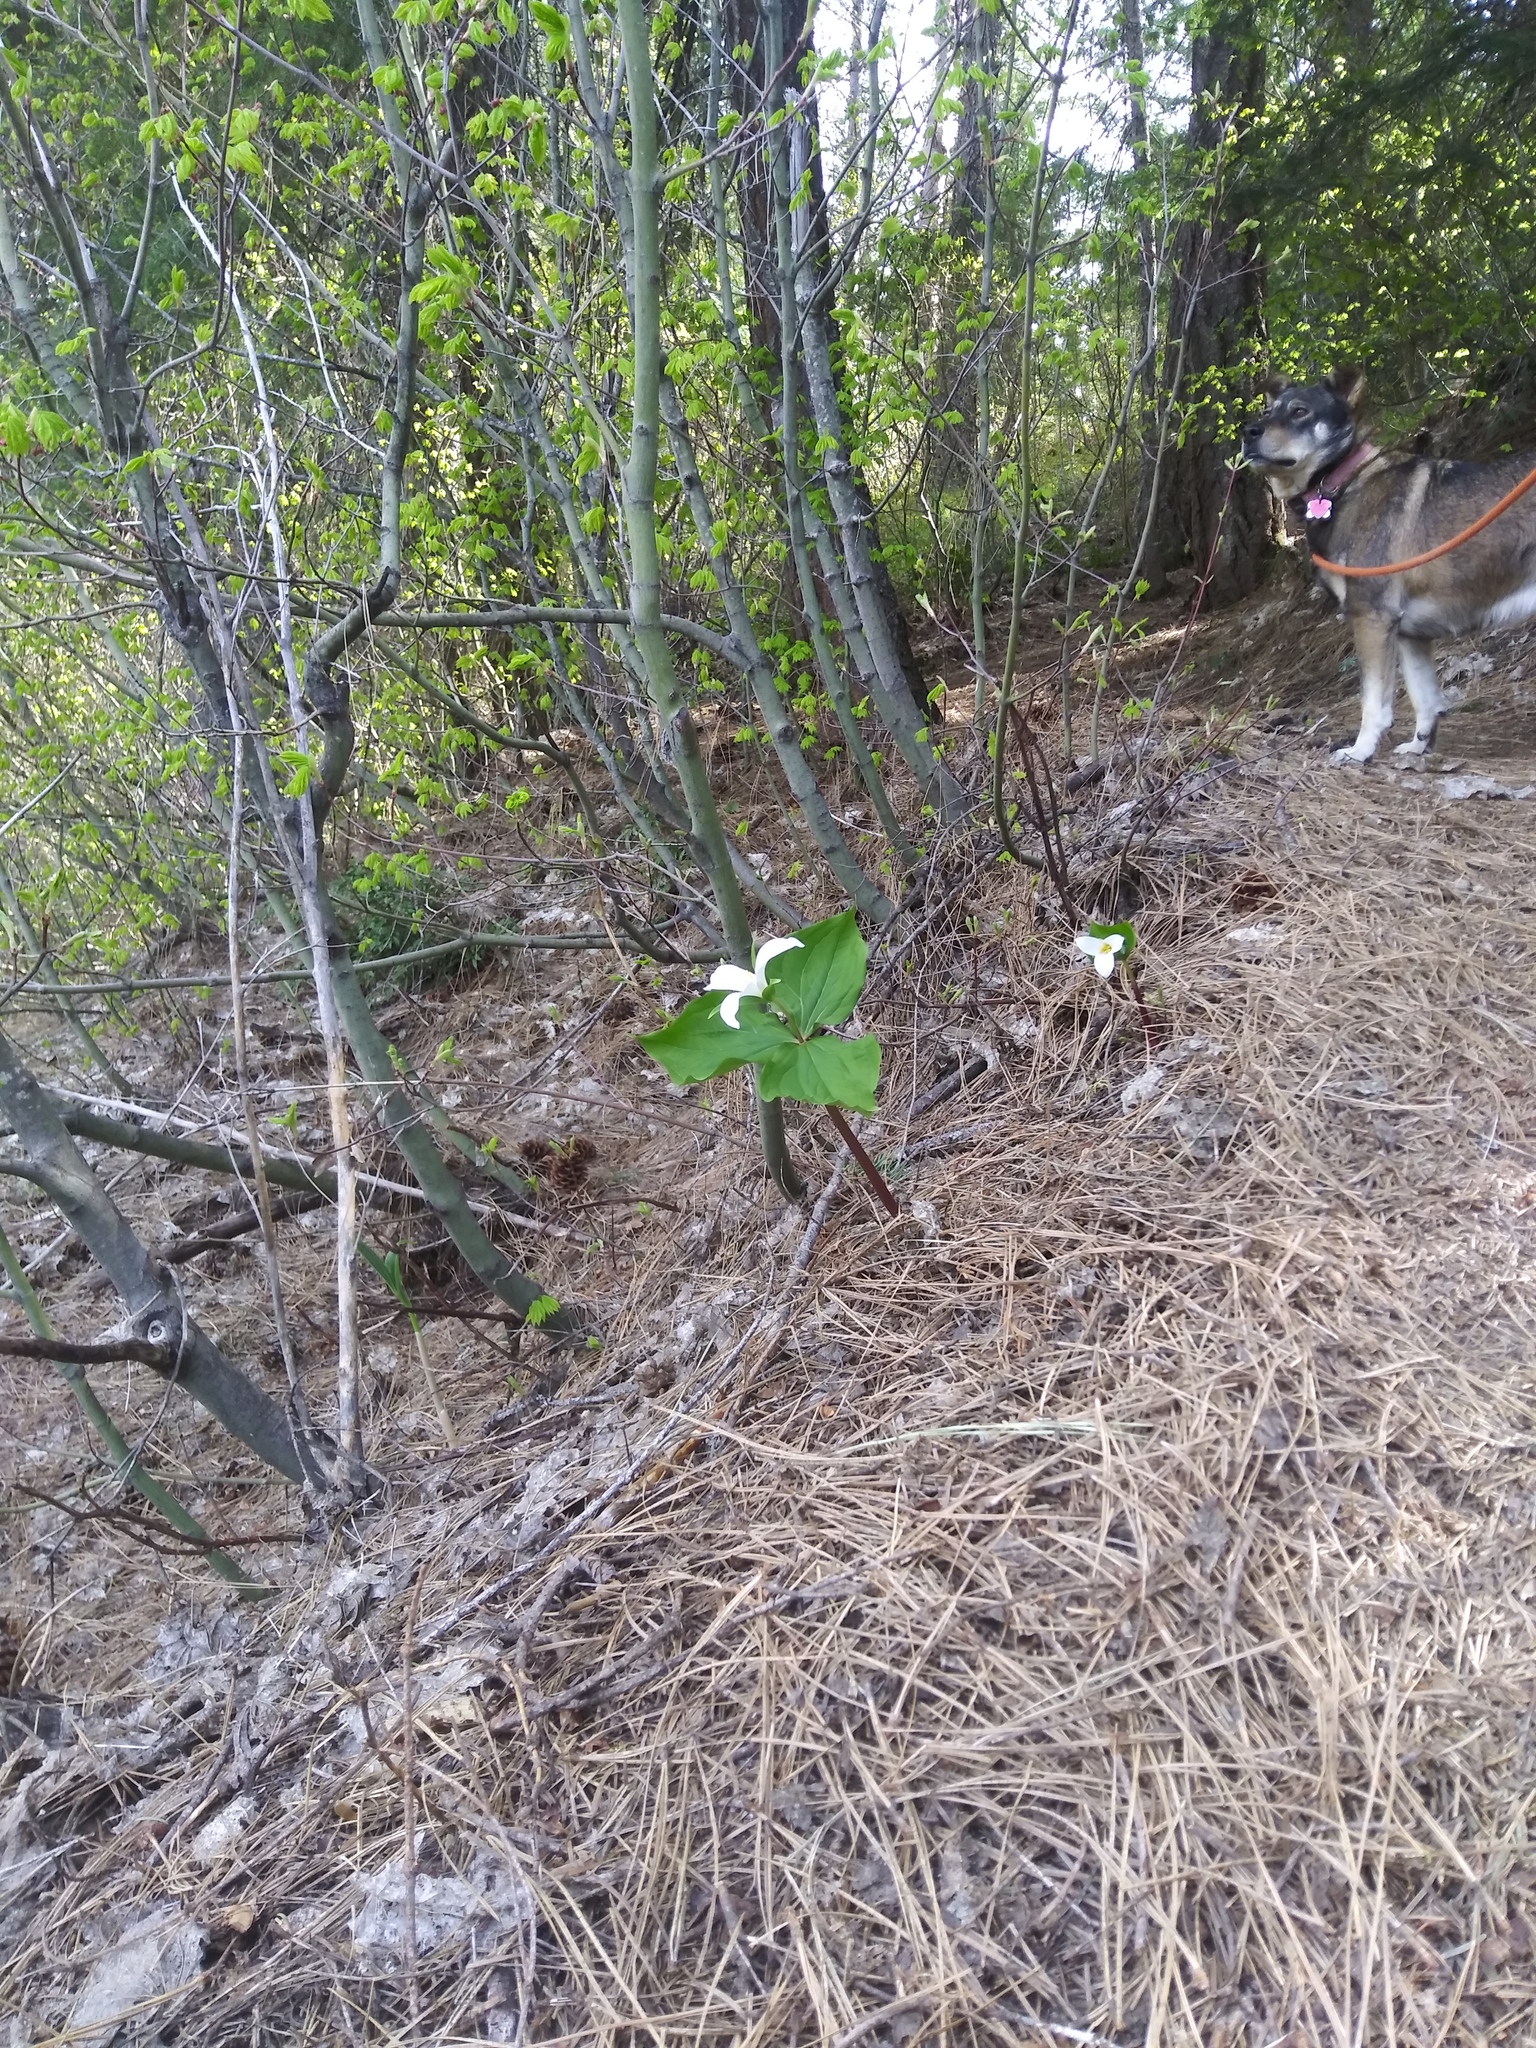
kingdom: Plantae
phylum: Tracheophyta
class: Liliopsida
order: Liliales
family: Melanthiaceae
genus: Trillium
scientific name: Trillium ovatum
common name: Pacific trillium
